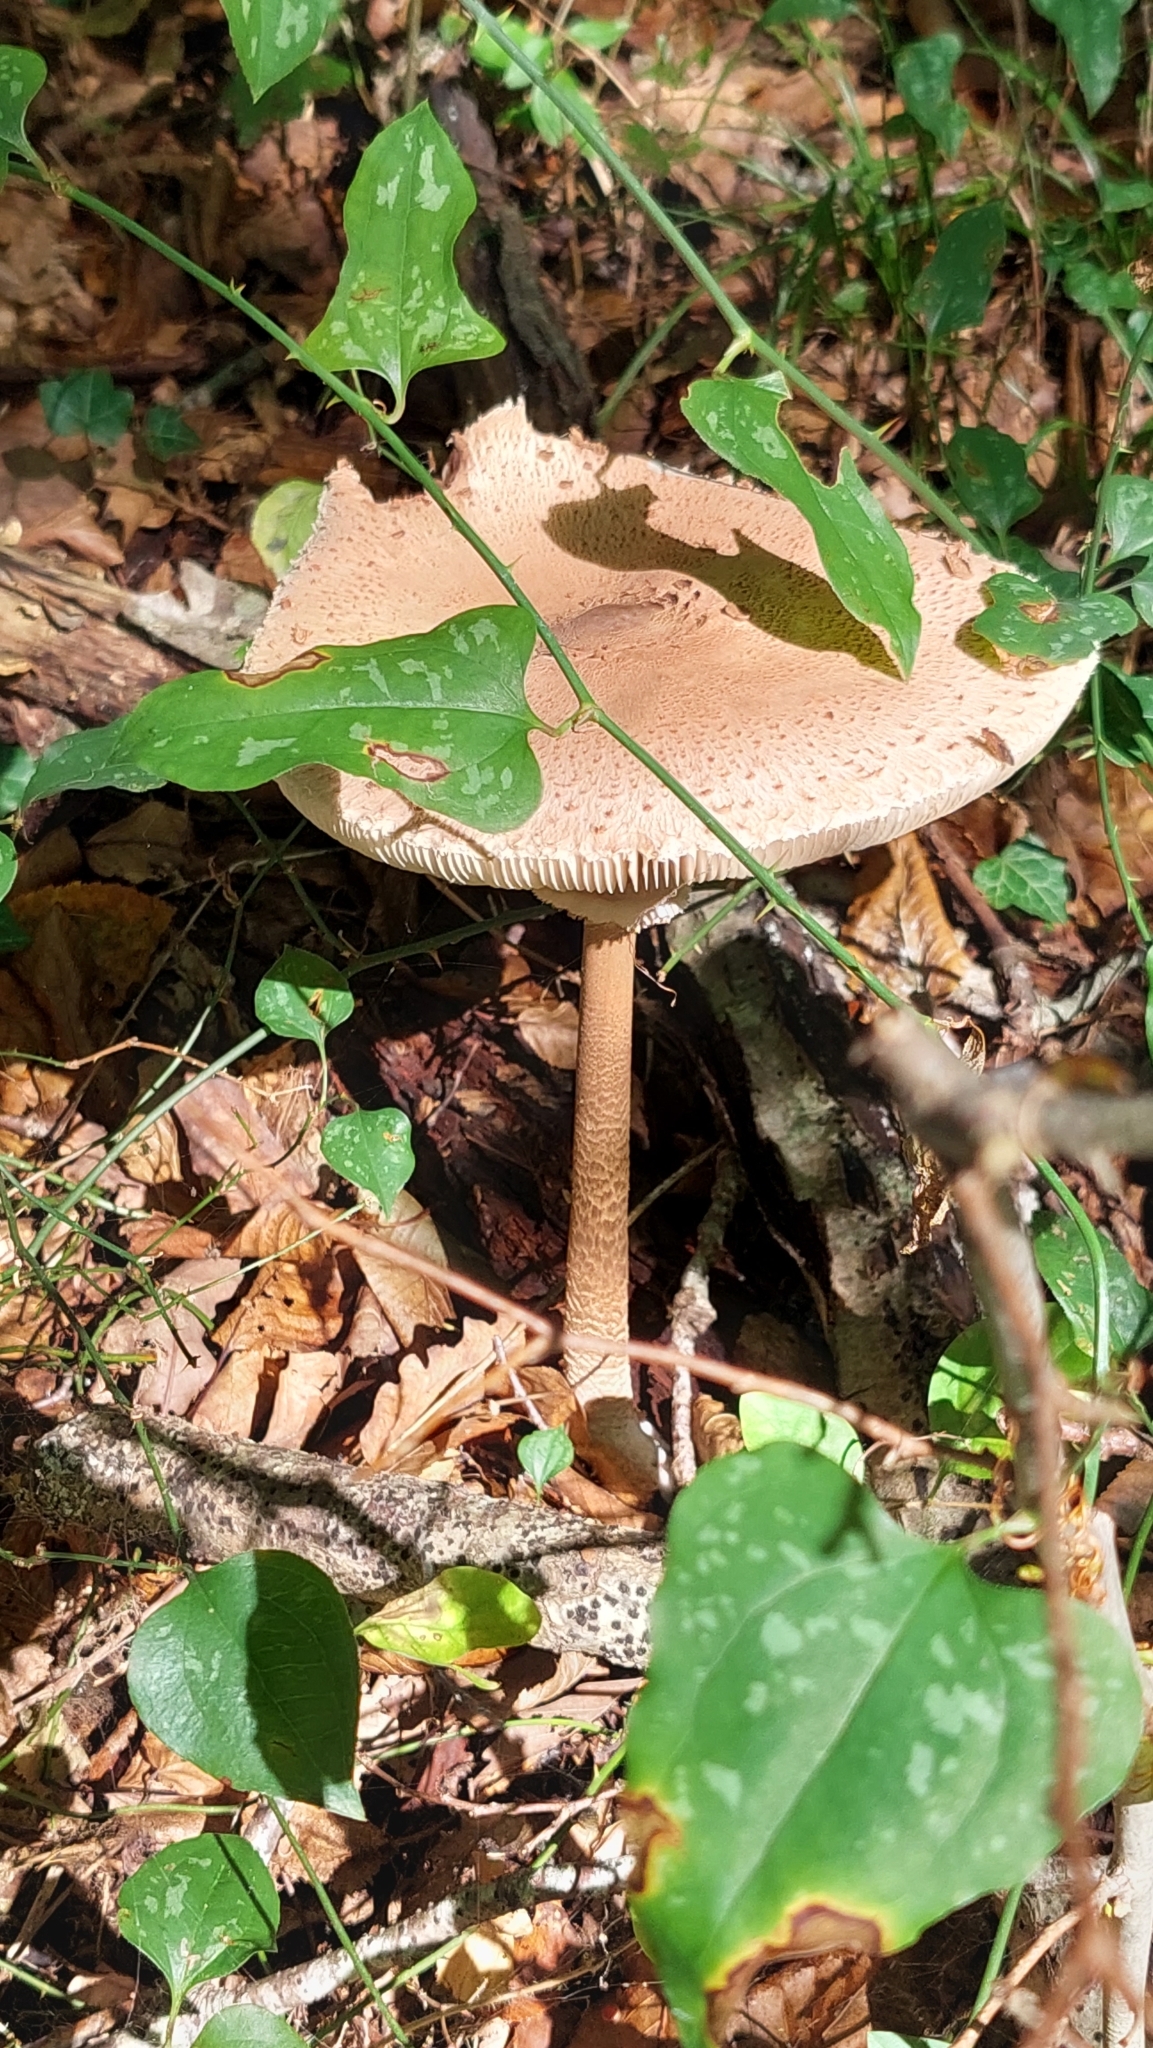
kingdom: Fungi
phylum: Basidiomycota
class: Agaricomycetes
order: Agaricales
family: Agaricaceae
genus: Macrolepiota
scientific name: Macrolepiota procera
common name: Parasol
